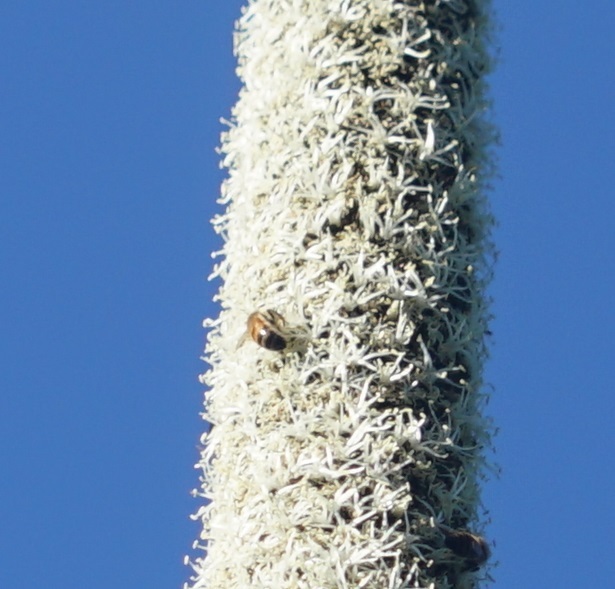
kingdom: Animalia
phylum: Arthropoda
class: Insecta
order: Hymenoptera
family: Apidae
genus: Apis
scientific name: Apis mellifera
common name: Honey bee
